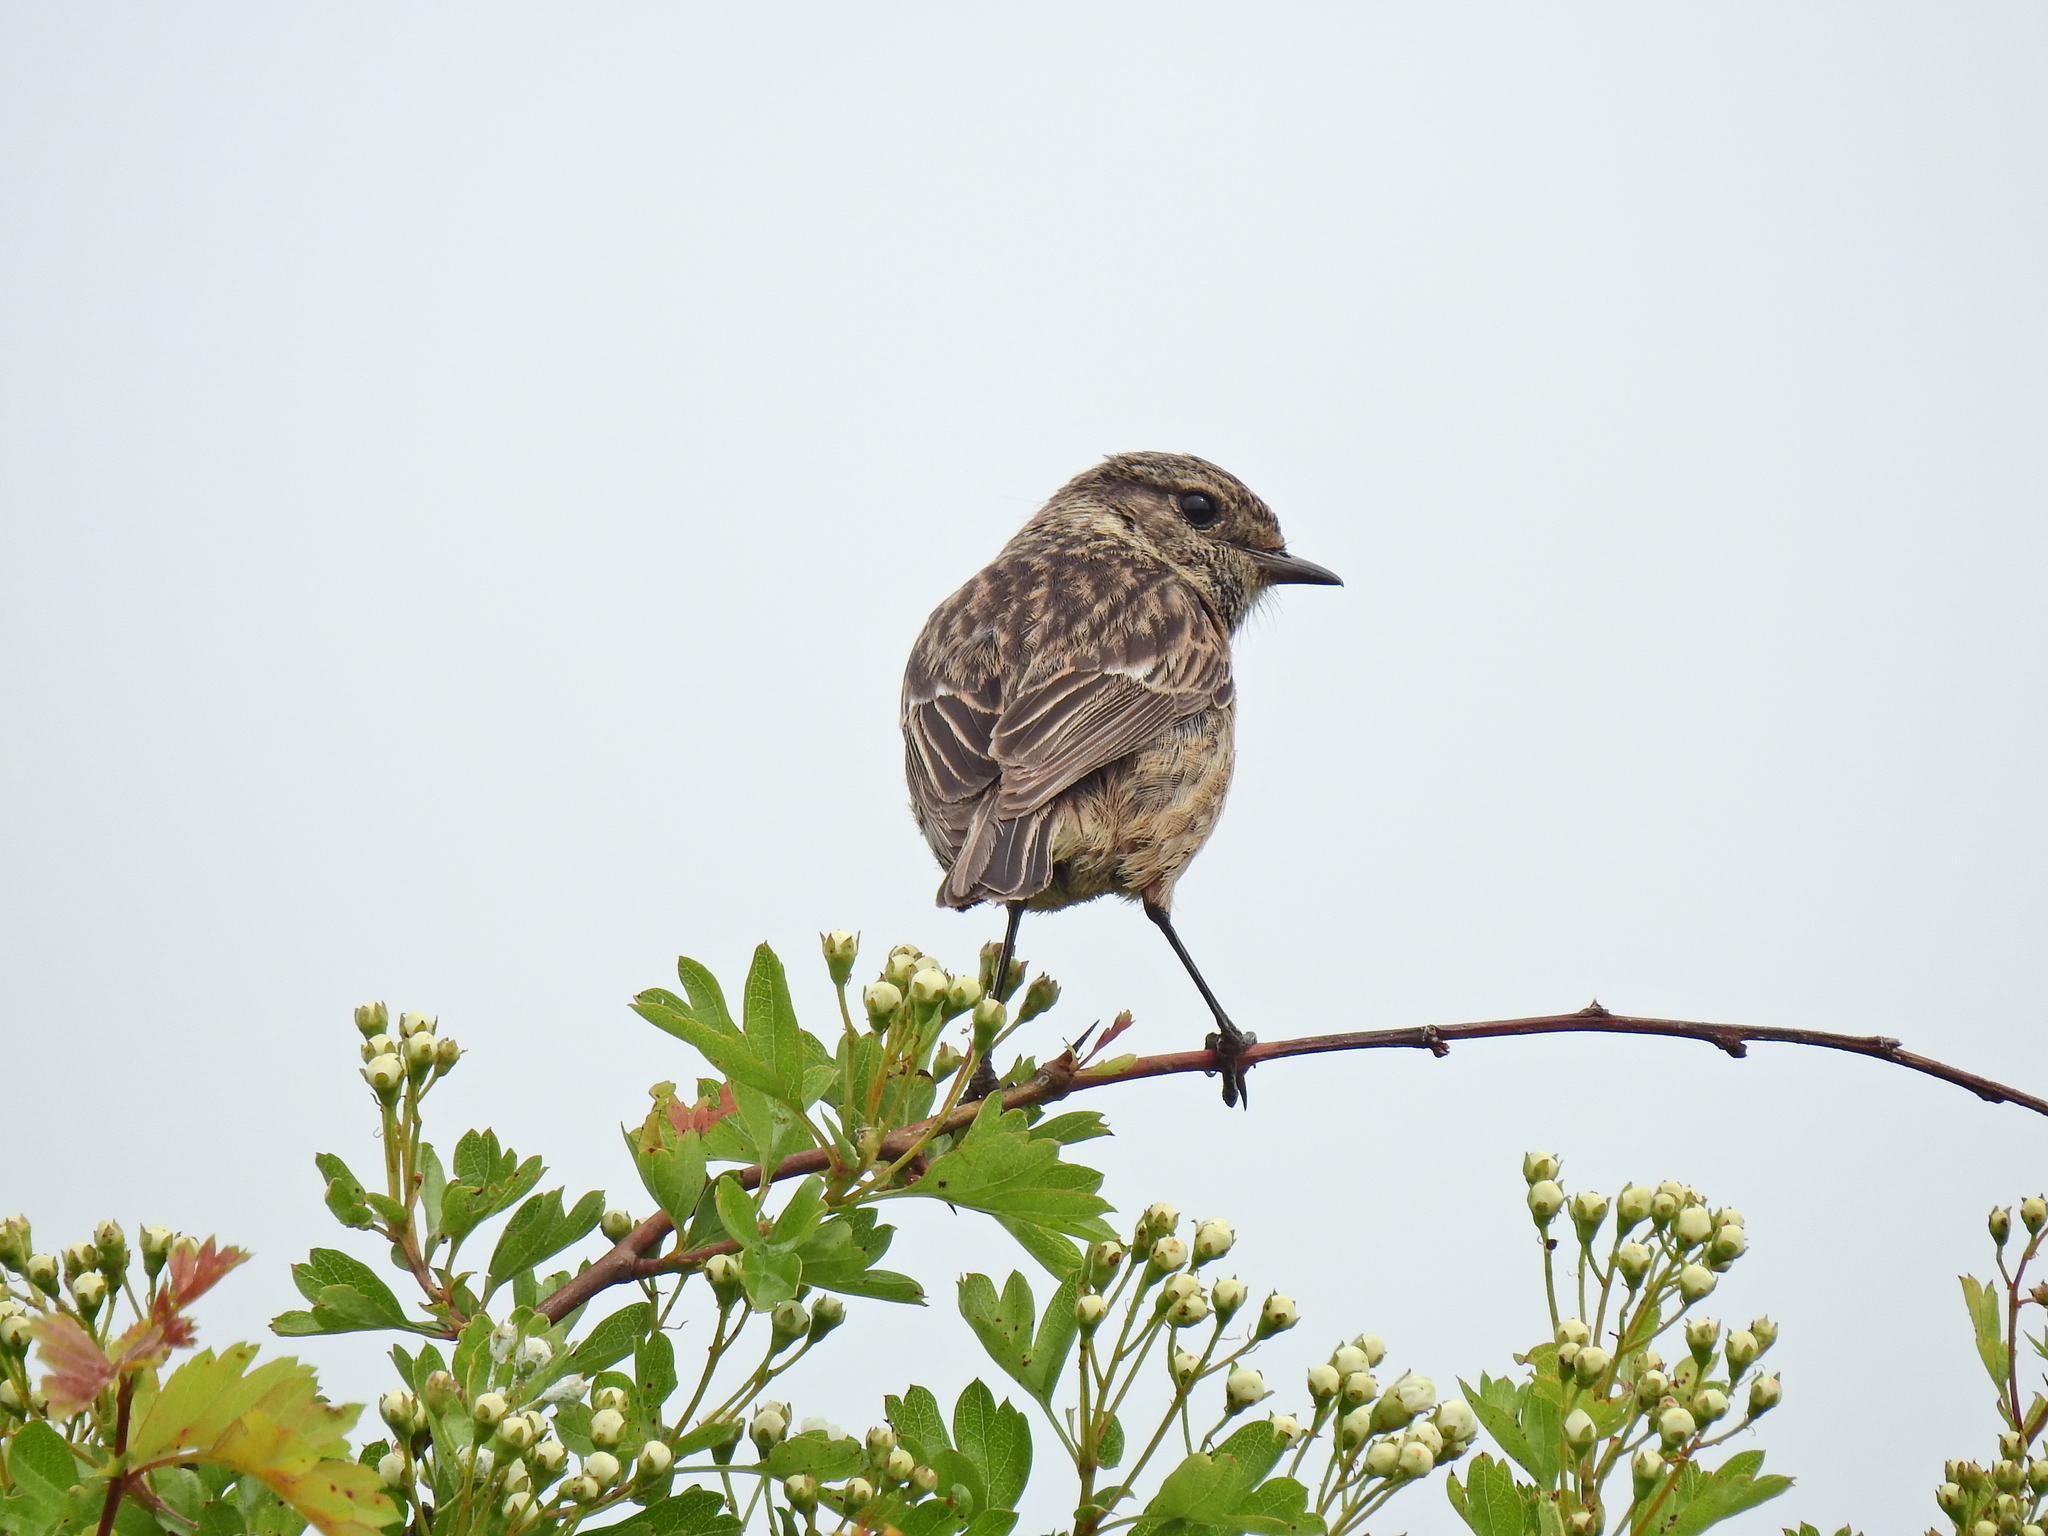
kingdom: Animalia
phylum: Chordata
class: Aves
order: Passeriformes
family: Muscicapidae
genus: Saxicola
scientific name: Saxicola rubicola
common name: European stonechat
